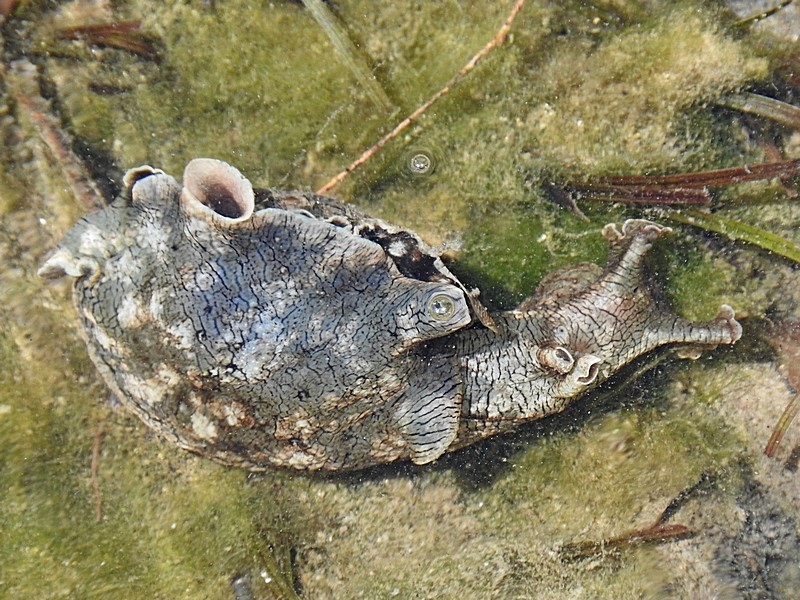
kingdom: Animalia
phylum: Mollusca
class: Gastropoda
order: Aplysiida
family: Aplysiidae
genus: Aplysia
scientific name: Aplysia sydneyensis
